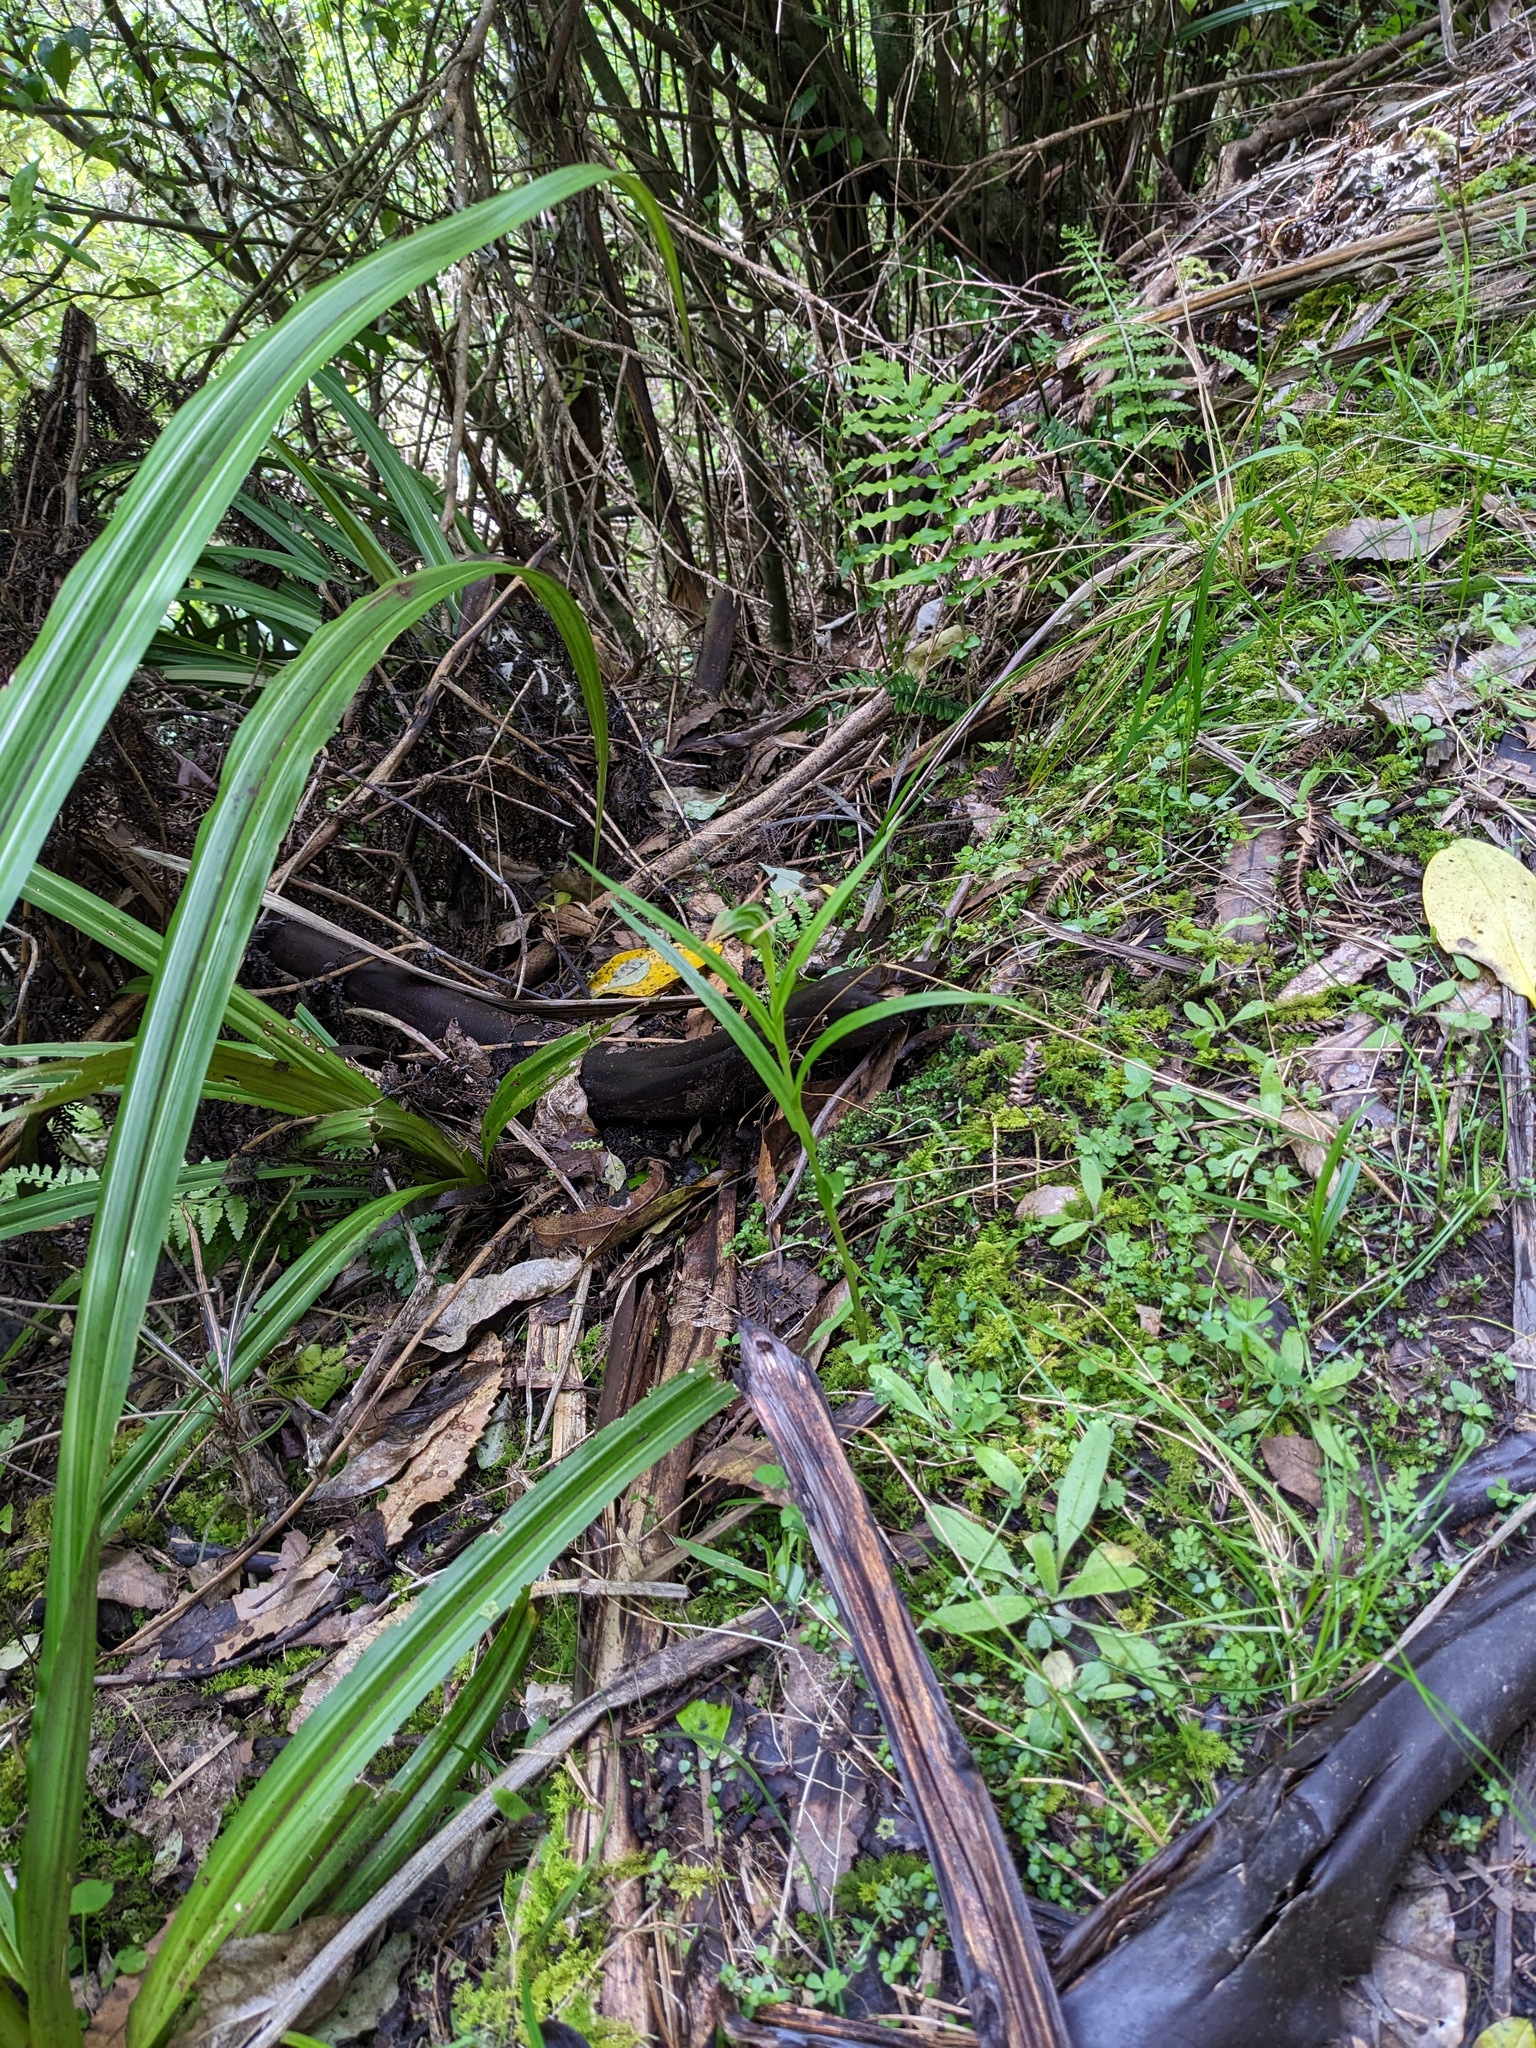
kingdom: Plantae
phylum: Tracheophyta
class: Liliopsida
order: Asparagales
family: Orchidaceae
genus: Pterostylis
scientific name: Pterostylis montana
